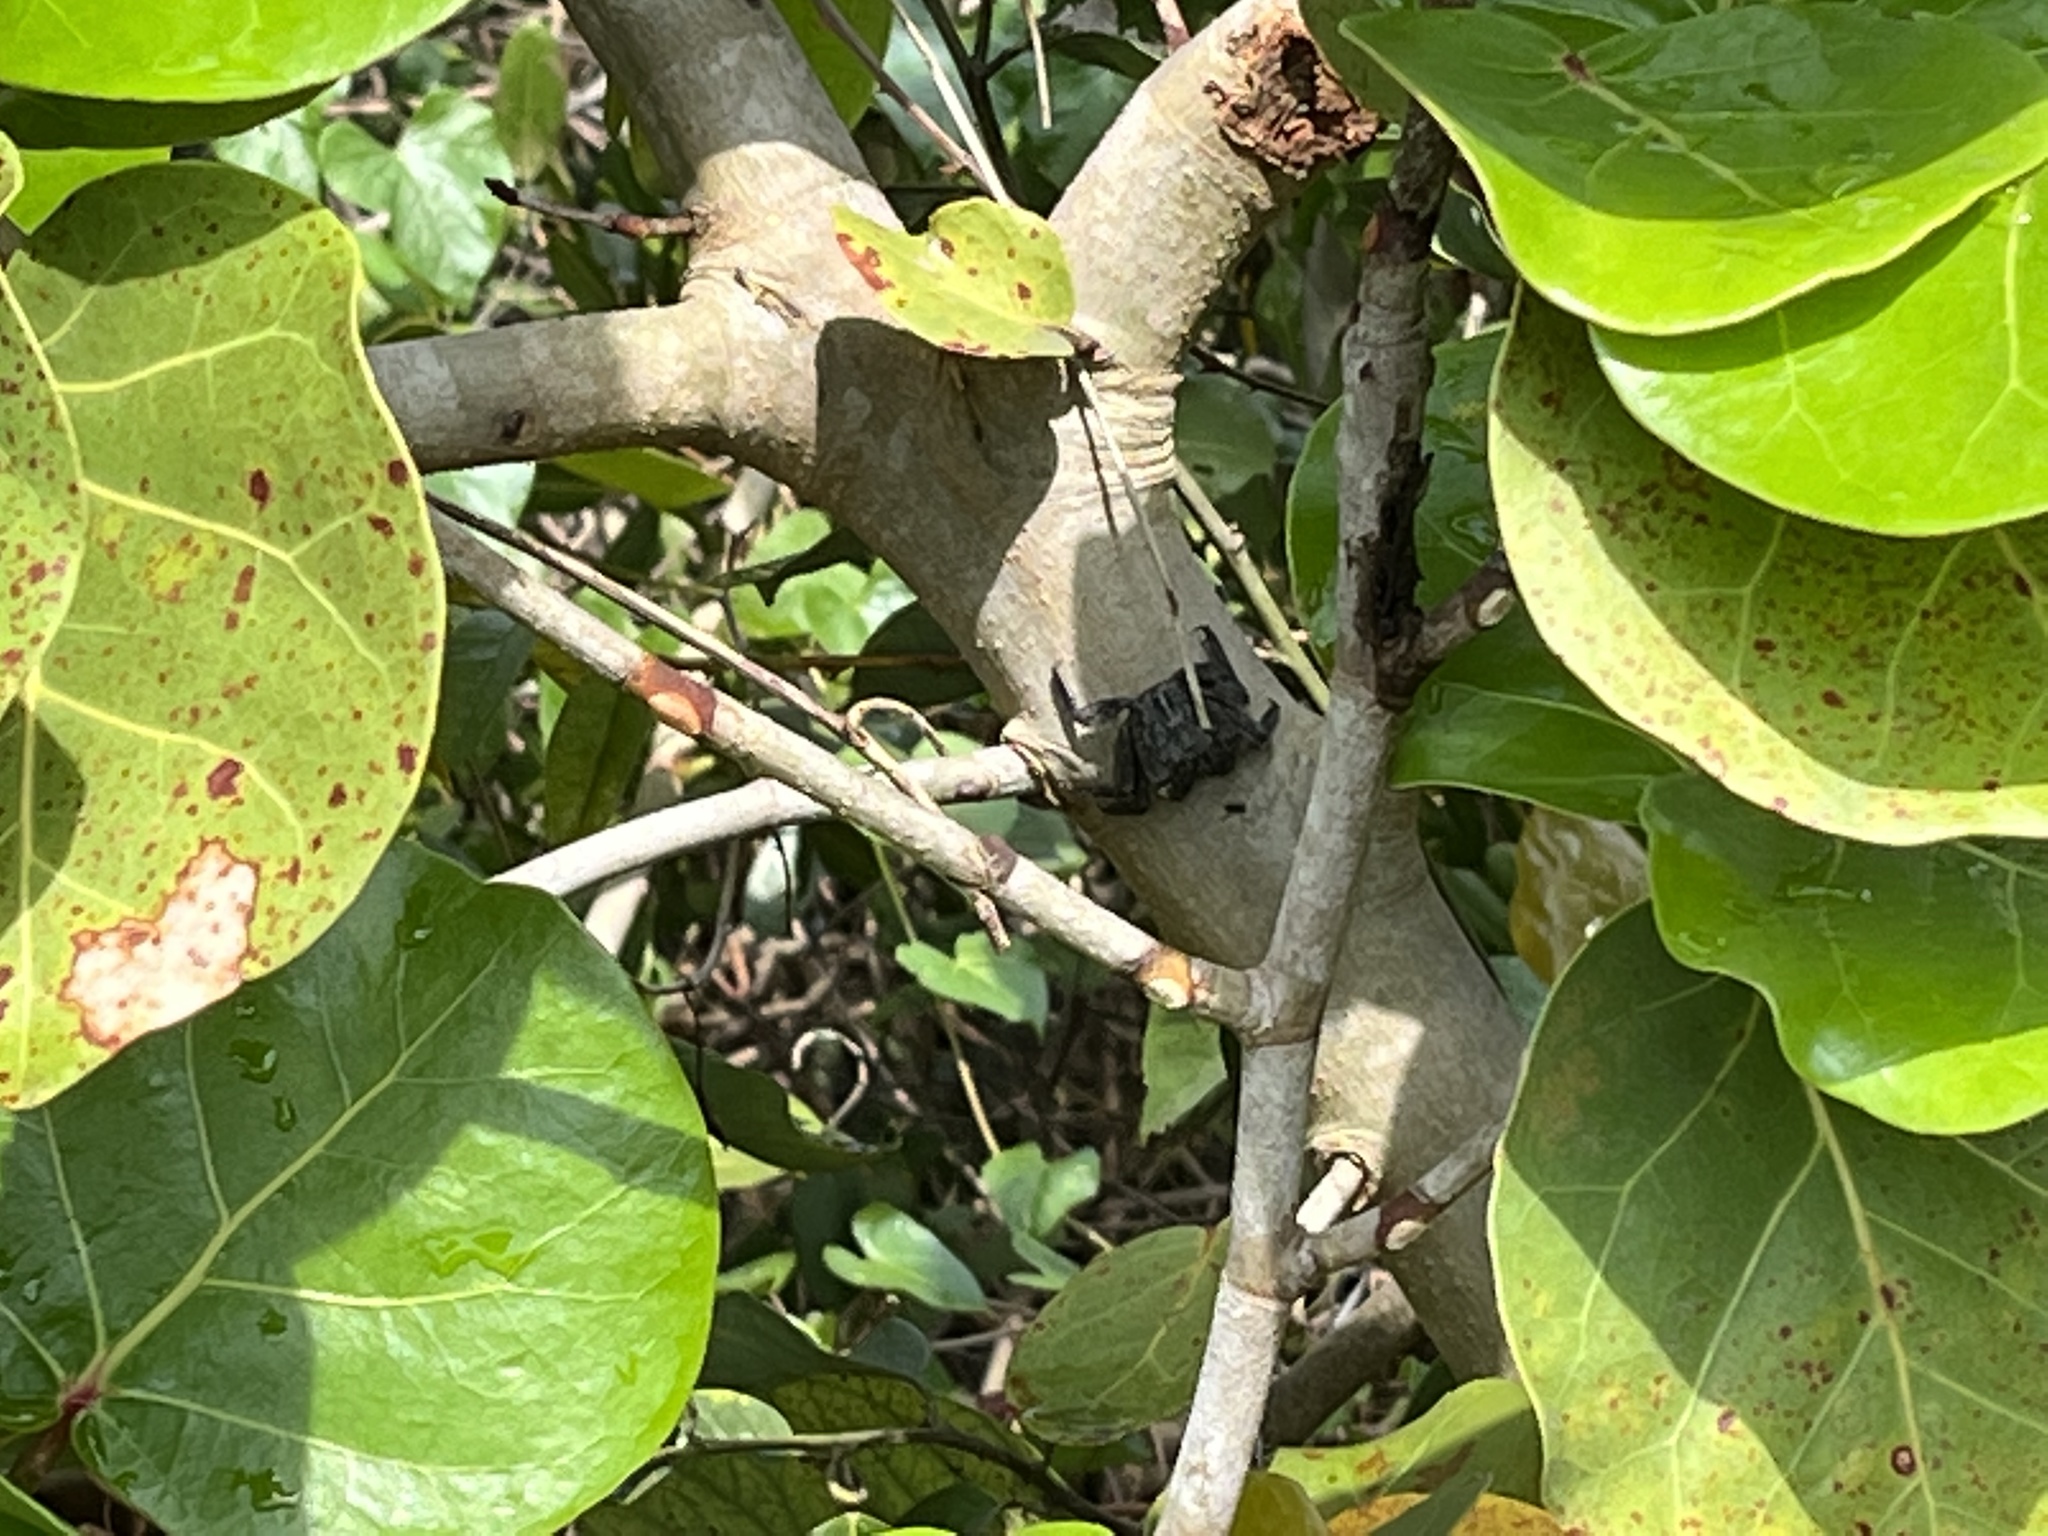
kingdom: Animalia
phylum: Arthropoda
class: Malacostraca
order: Decapoda
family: Sesarmidae
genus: Aratus
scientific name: Aratus pisonii
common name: Mangrove crab
